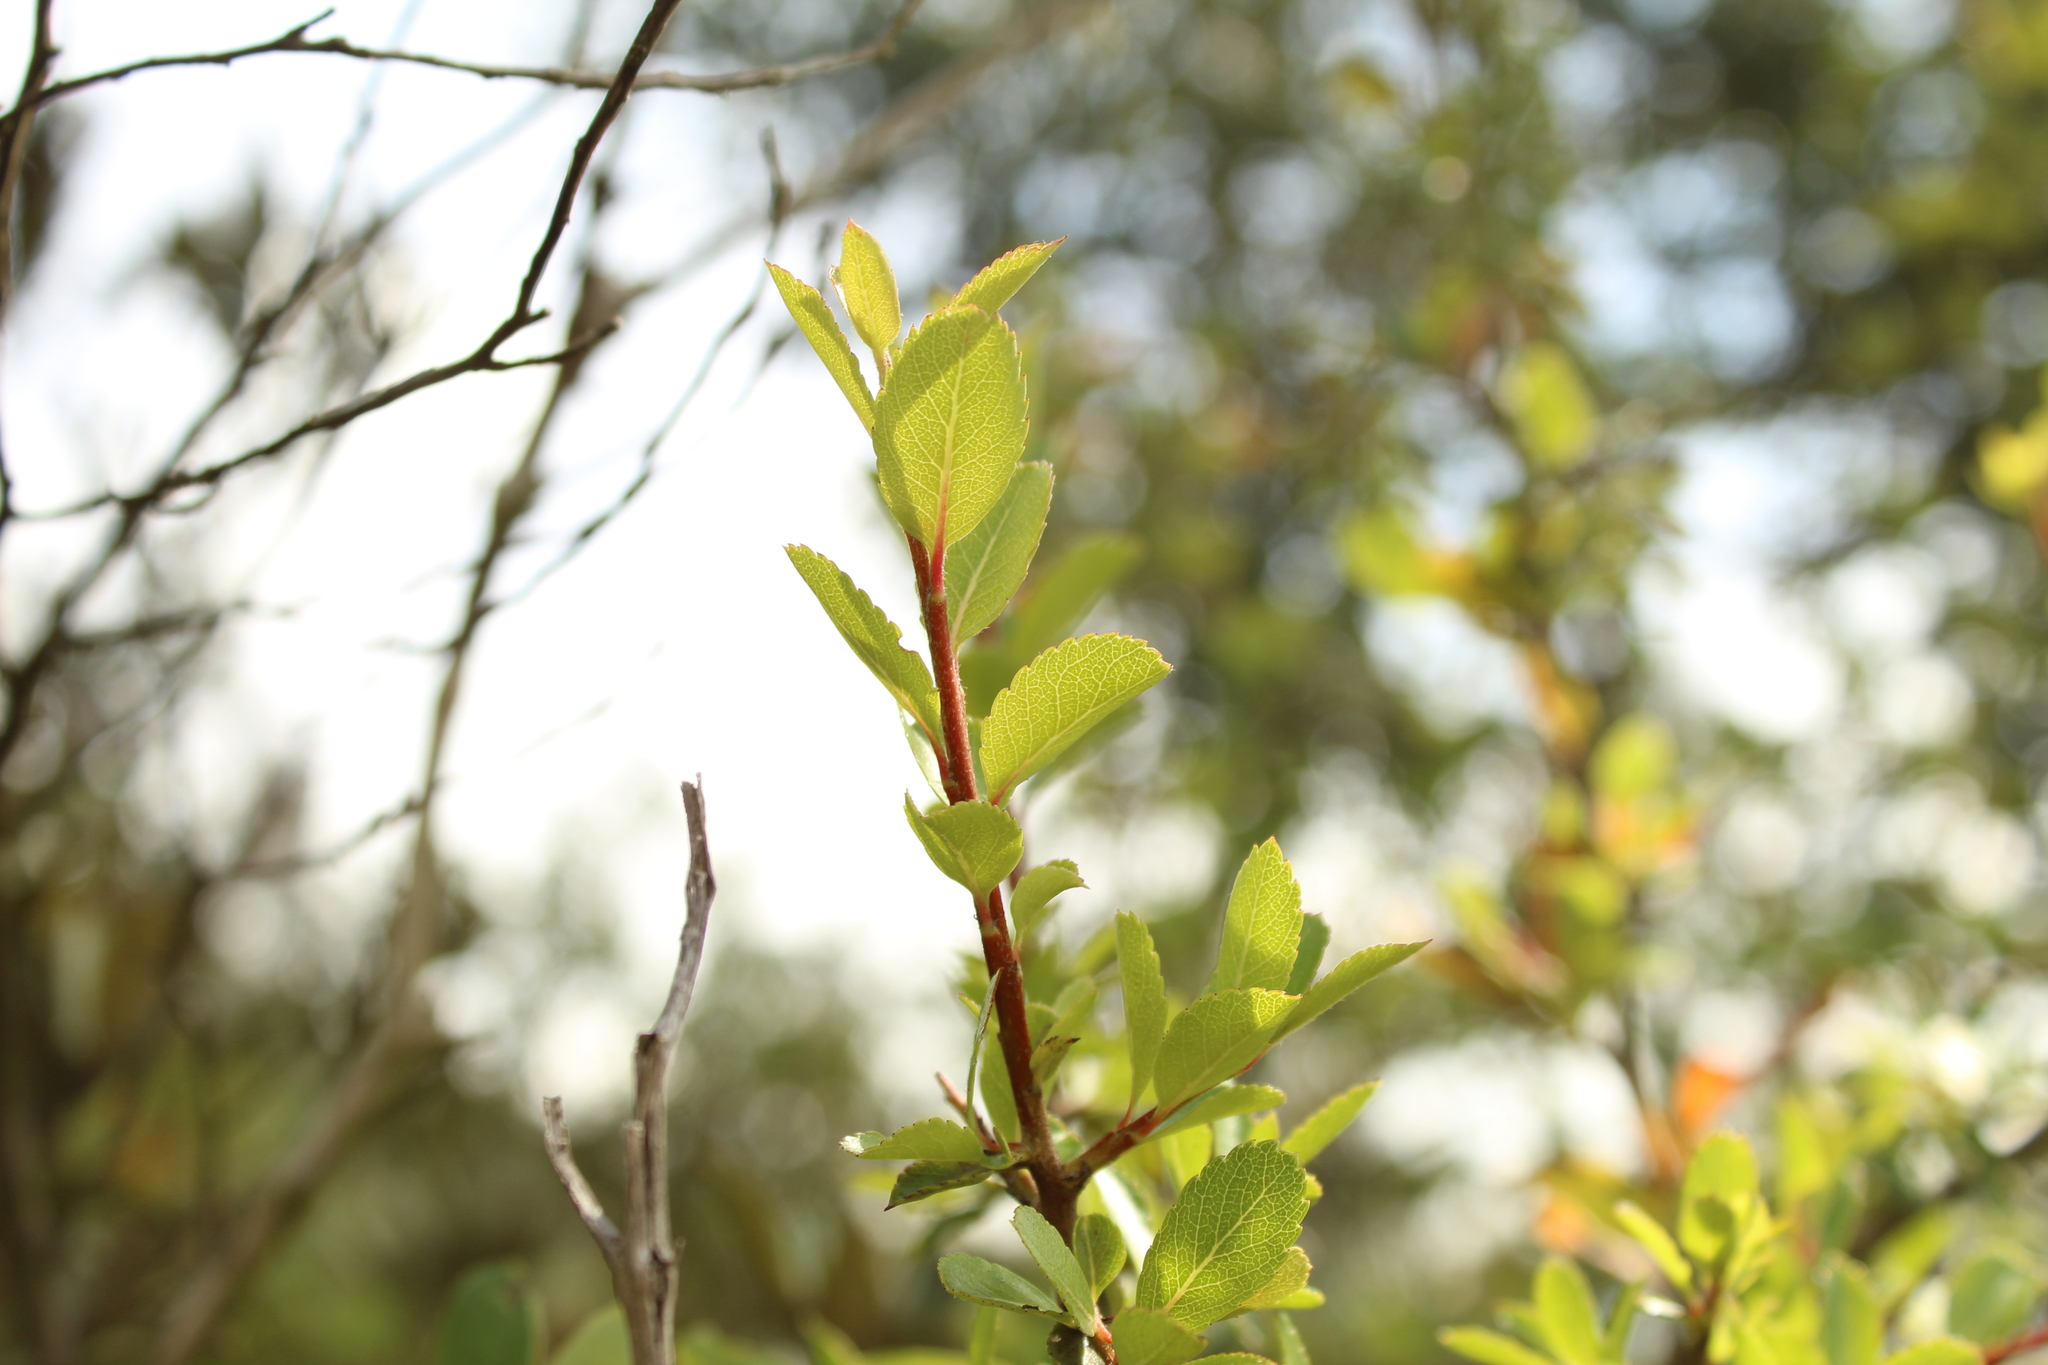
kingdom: Plantae
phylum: Tracheophyta
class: Magnoliopsida
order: Rosales
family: Rosaceae
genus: Hesperomeles
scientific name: Hesperomeles obtusifolia
